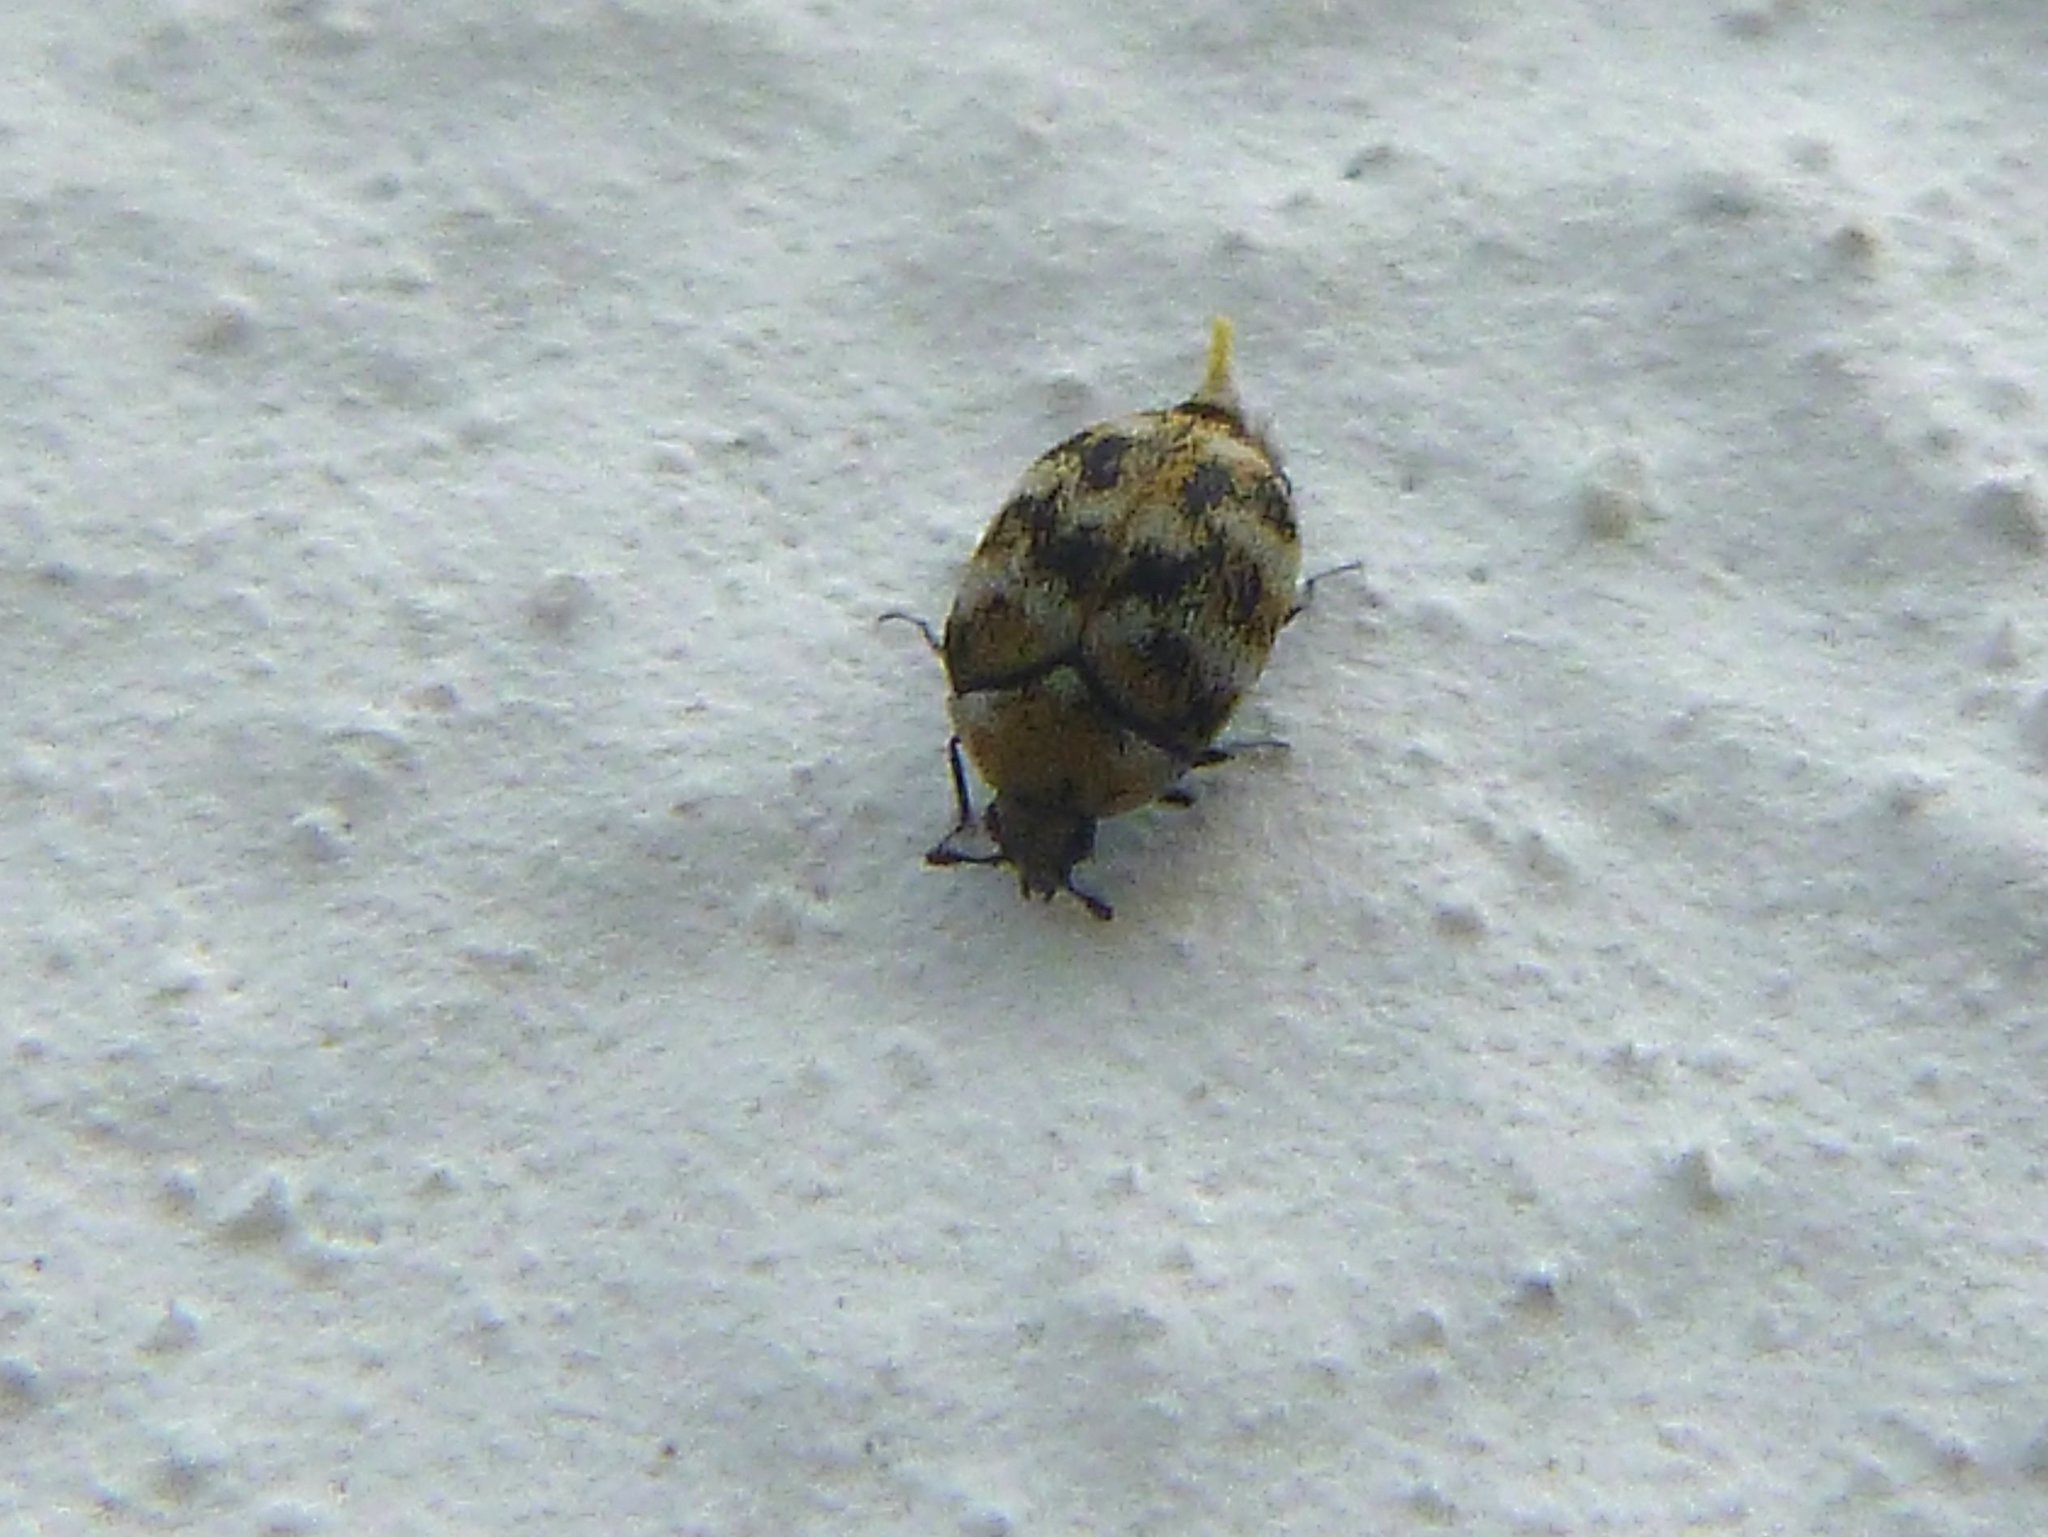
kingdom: Animalia
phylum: Arthropoda
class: Insecta
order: Coleoptera
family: Dermestidae
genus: Anthrenus
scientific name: Anthrenus verbasci
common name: Varied carpet beetle
